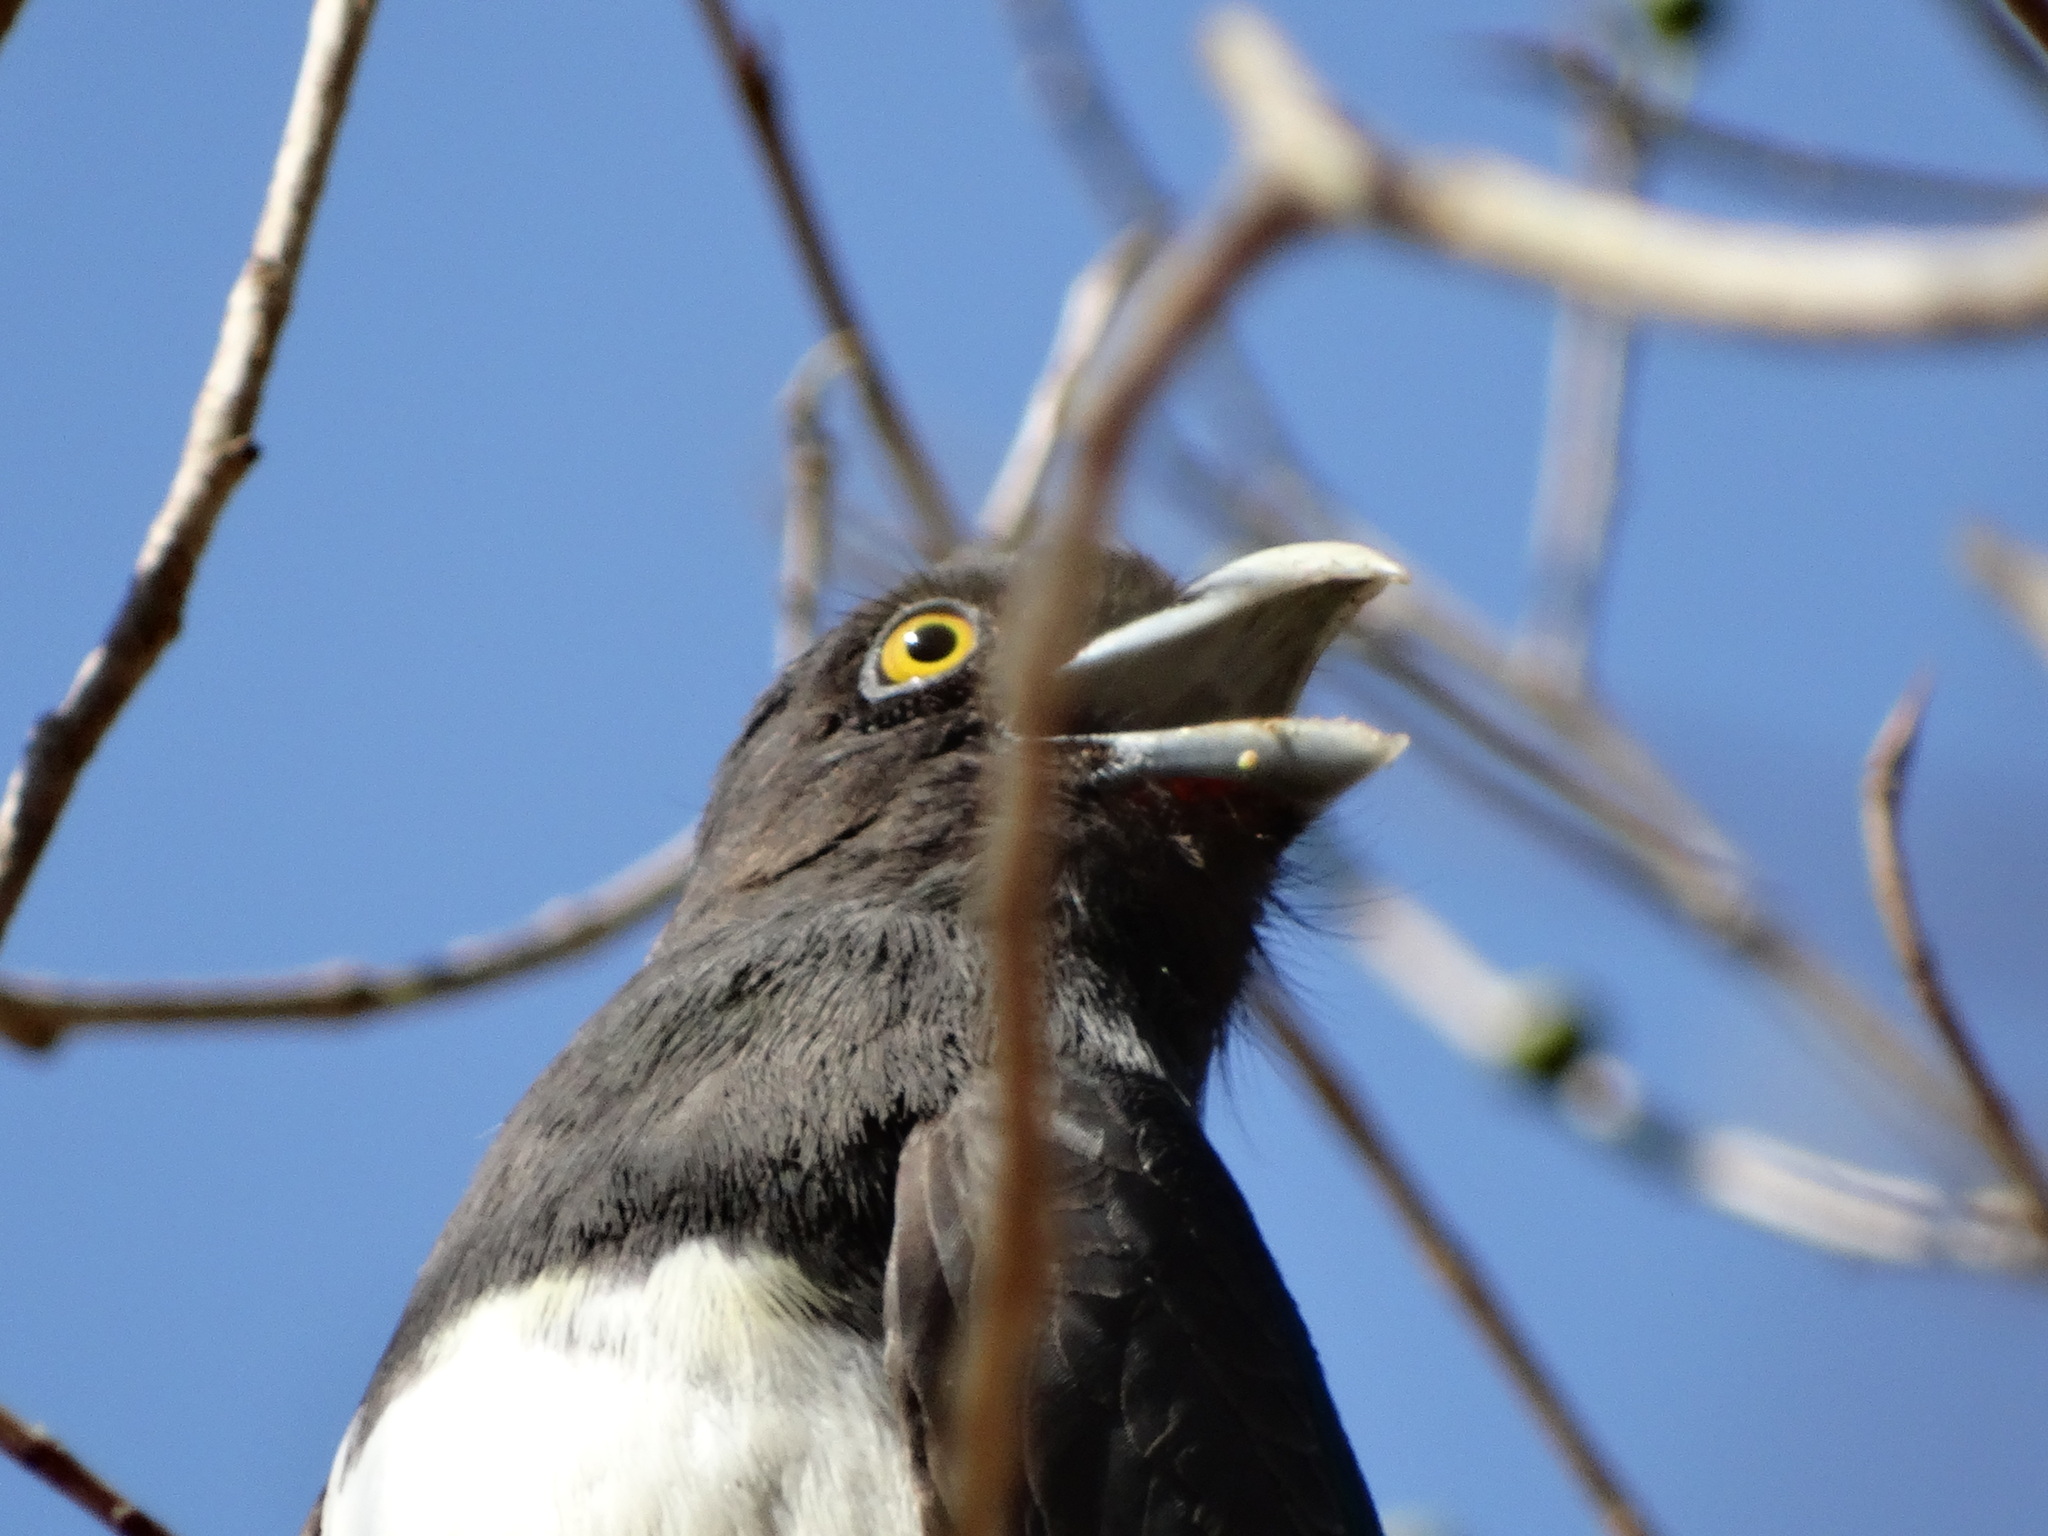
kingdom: Animalia
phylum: Chordata
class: Aves
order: Trogoniformes
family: Trogonidae
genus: Trogon
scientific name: Trogon citreolus
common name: Citreoline trogon
